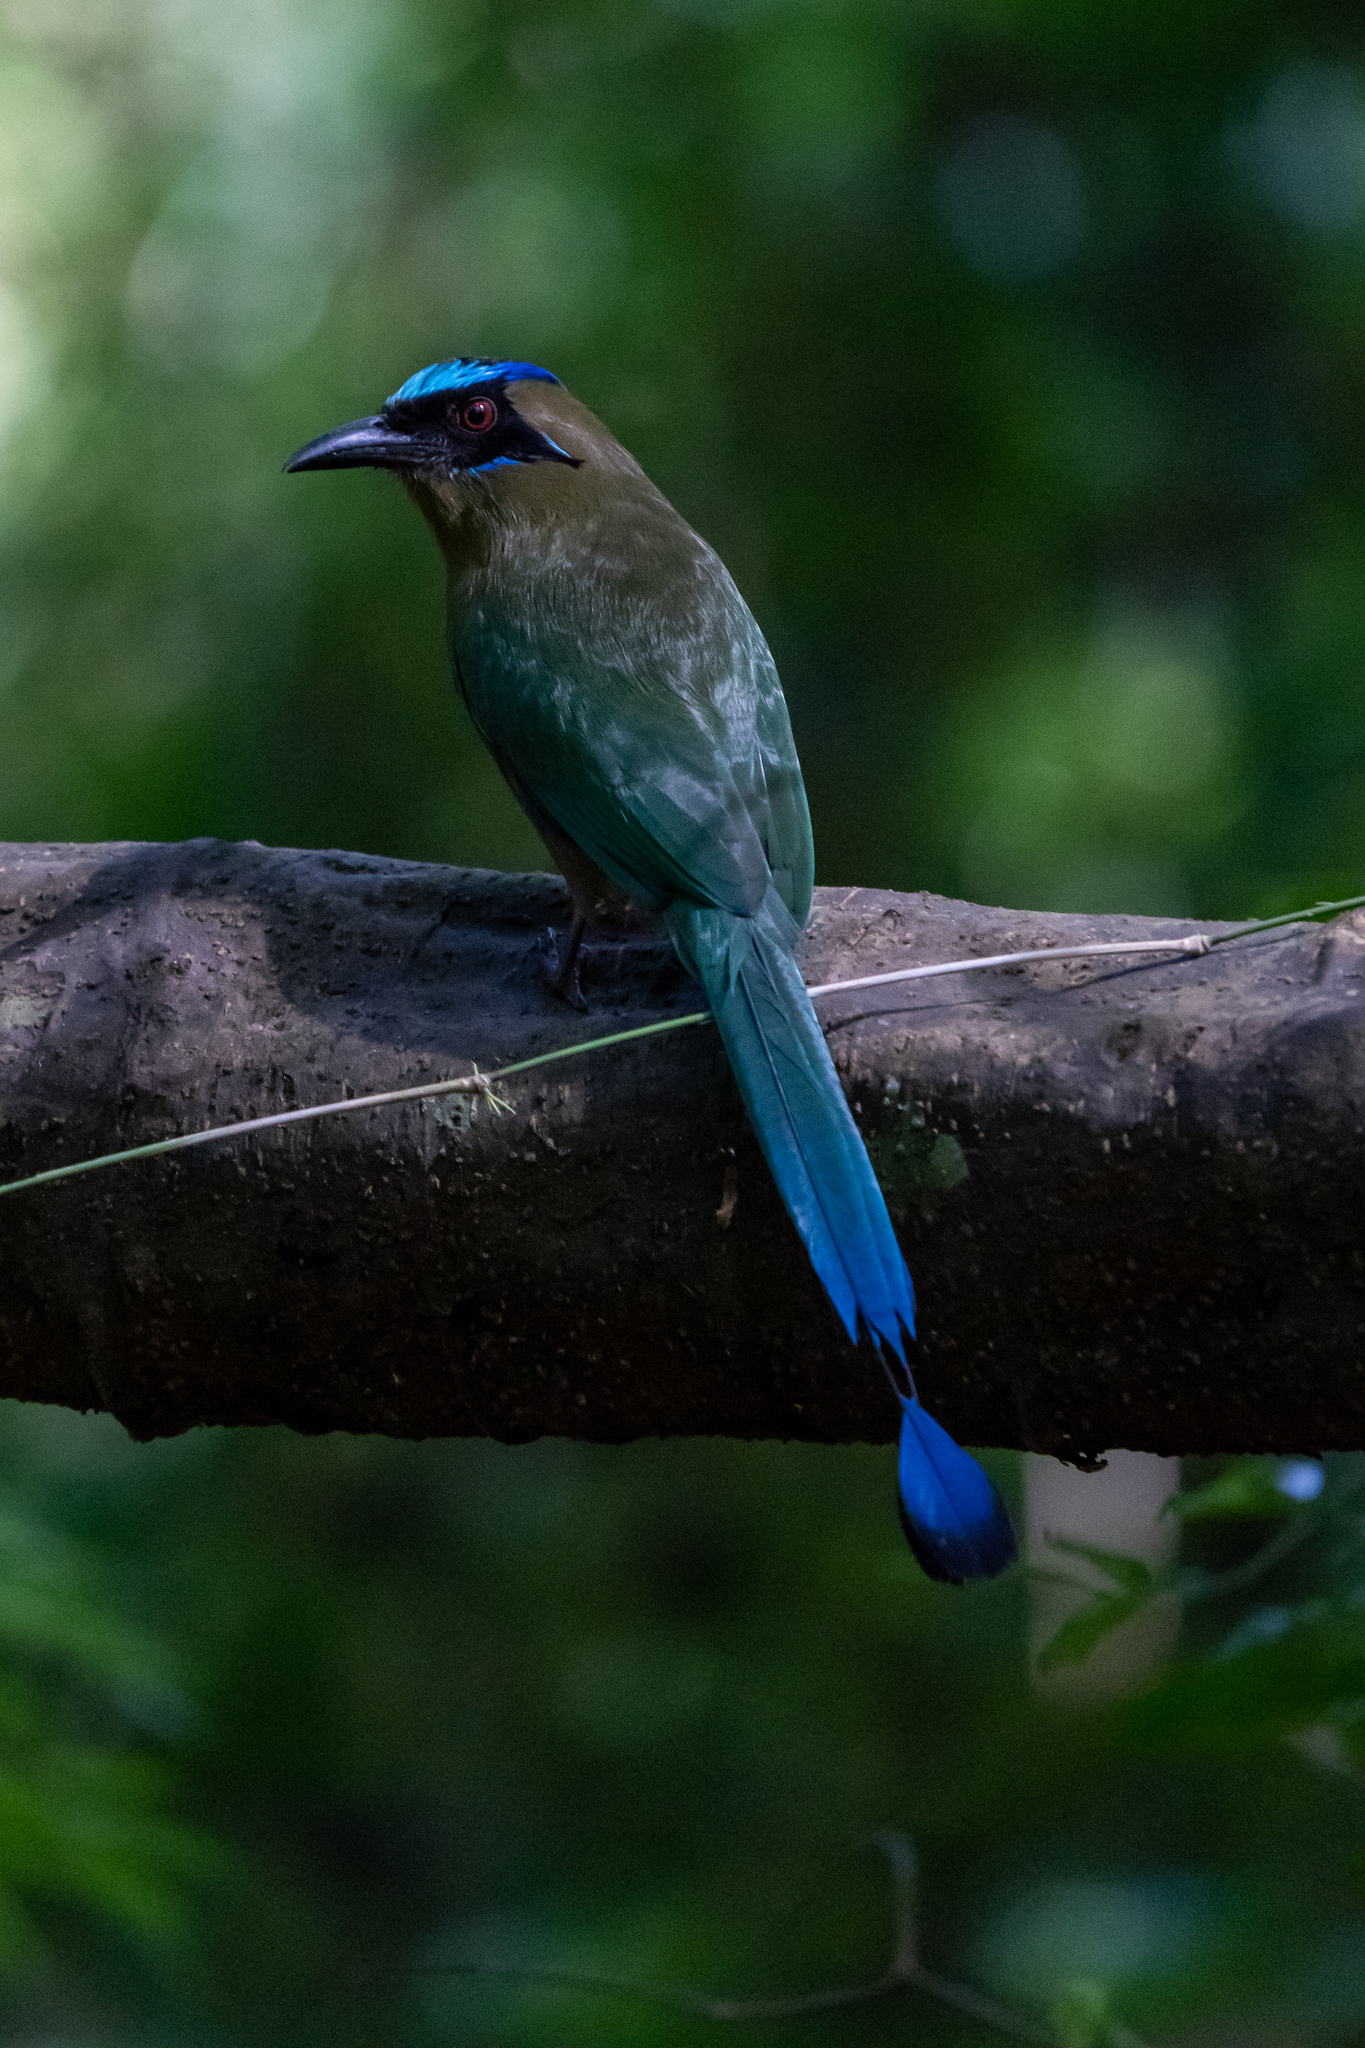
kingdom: Animalia
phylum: Chordata
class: Aves
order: Coraciiformes
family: Momotidae
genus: Momotus
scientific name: Momotus subrufescens
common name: Whooping motmot
